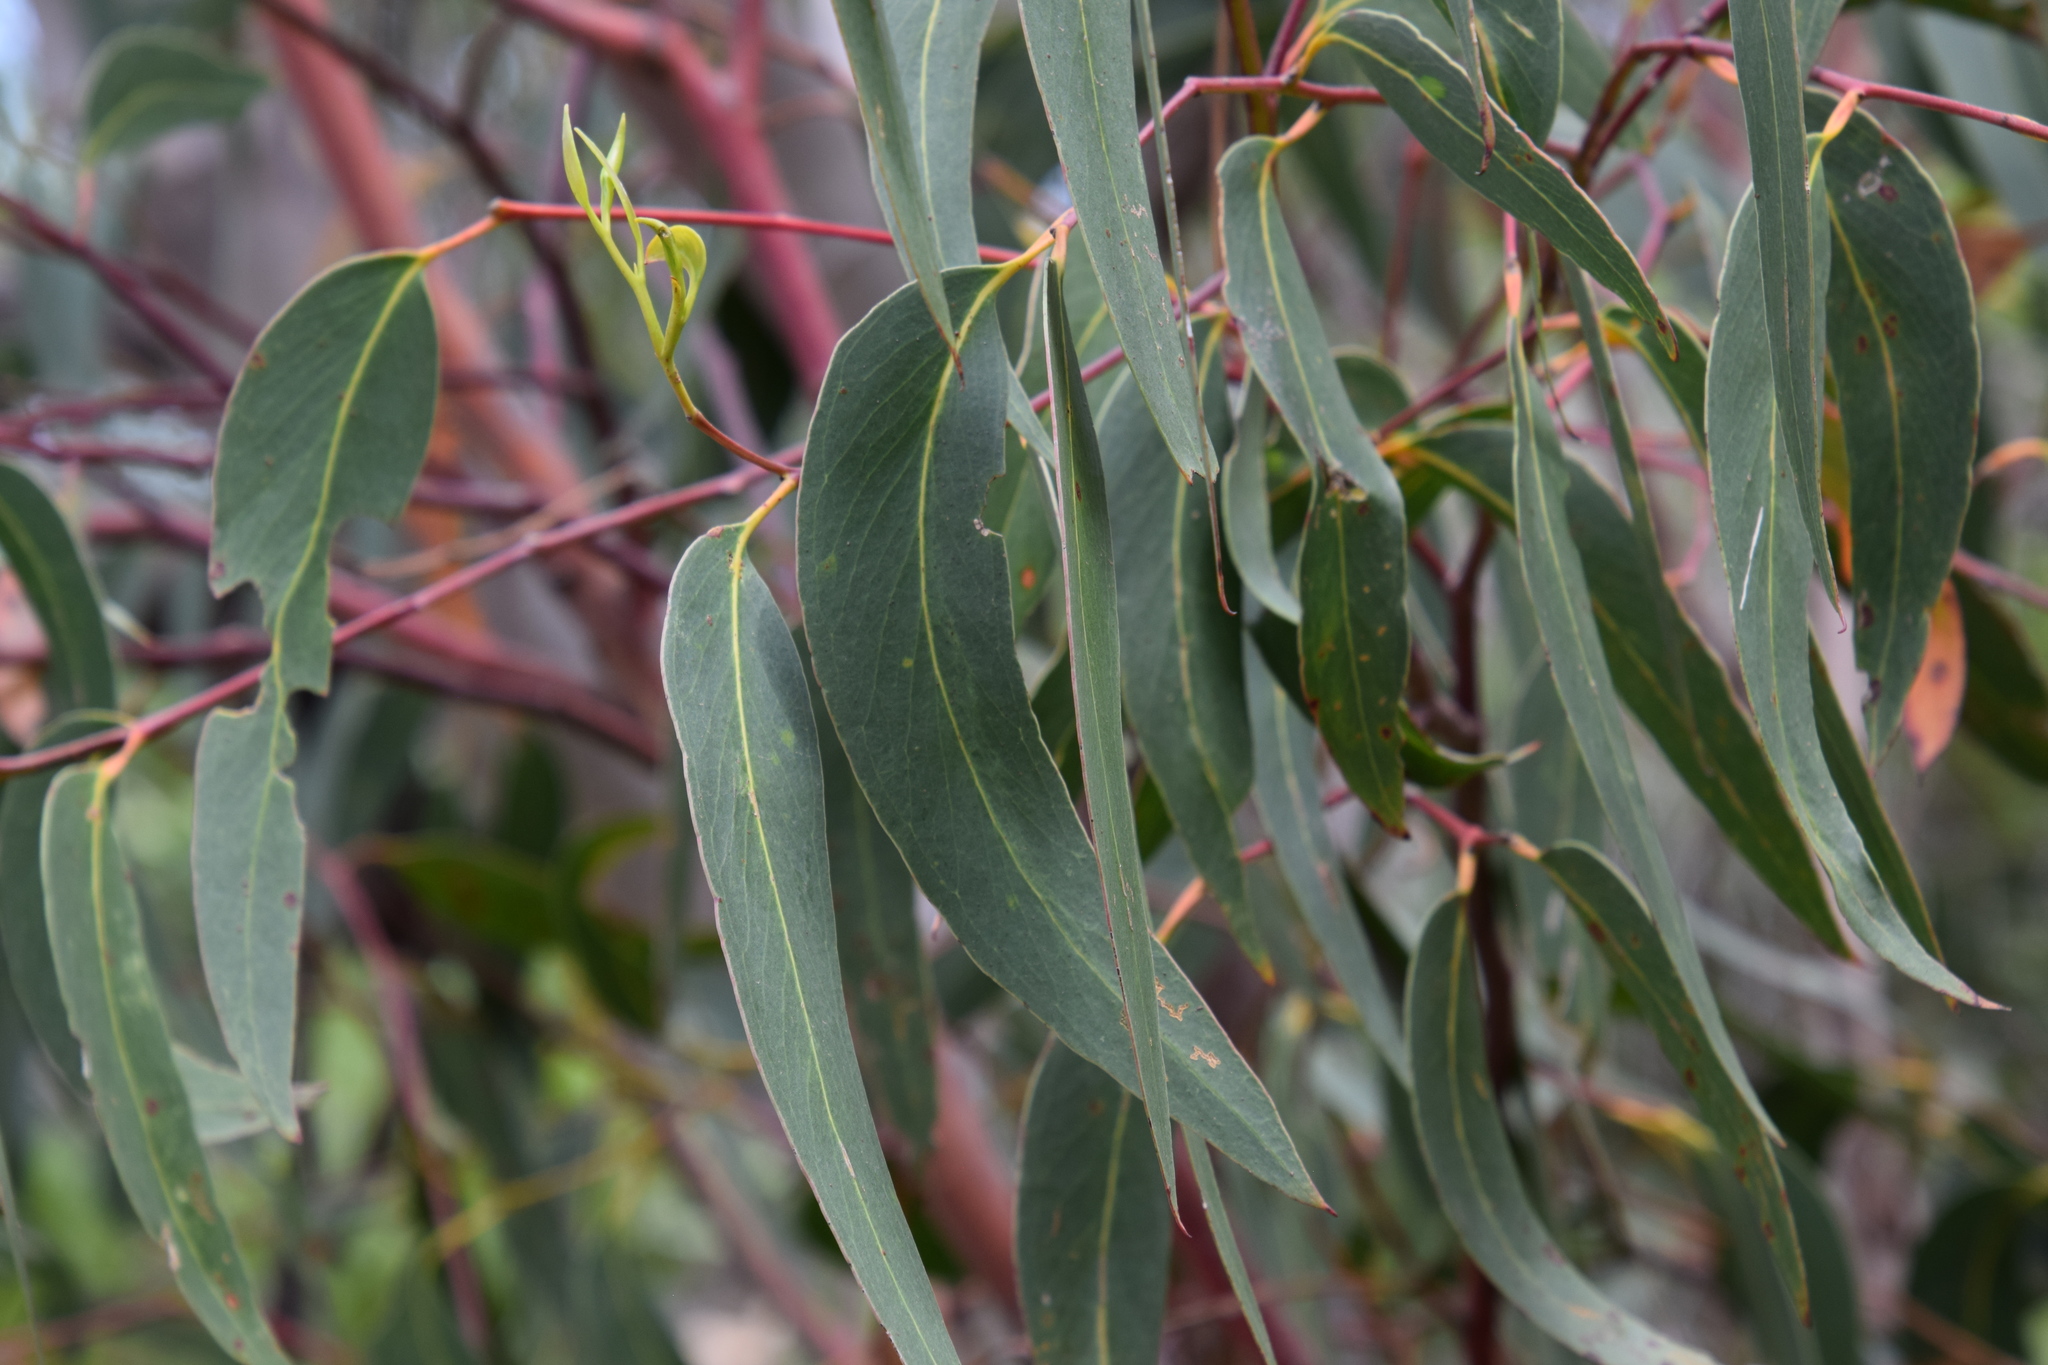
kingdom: Plantae
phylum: Tracheophyta
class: Magnoliopsida
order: Myrtales
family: Myrtaceae
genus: Eucalyptus
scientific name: Eucalyptus haemastoma
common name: Scribbly-gum
